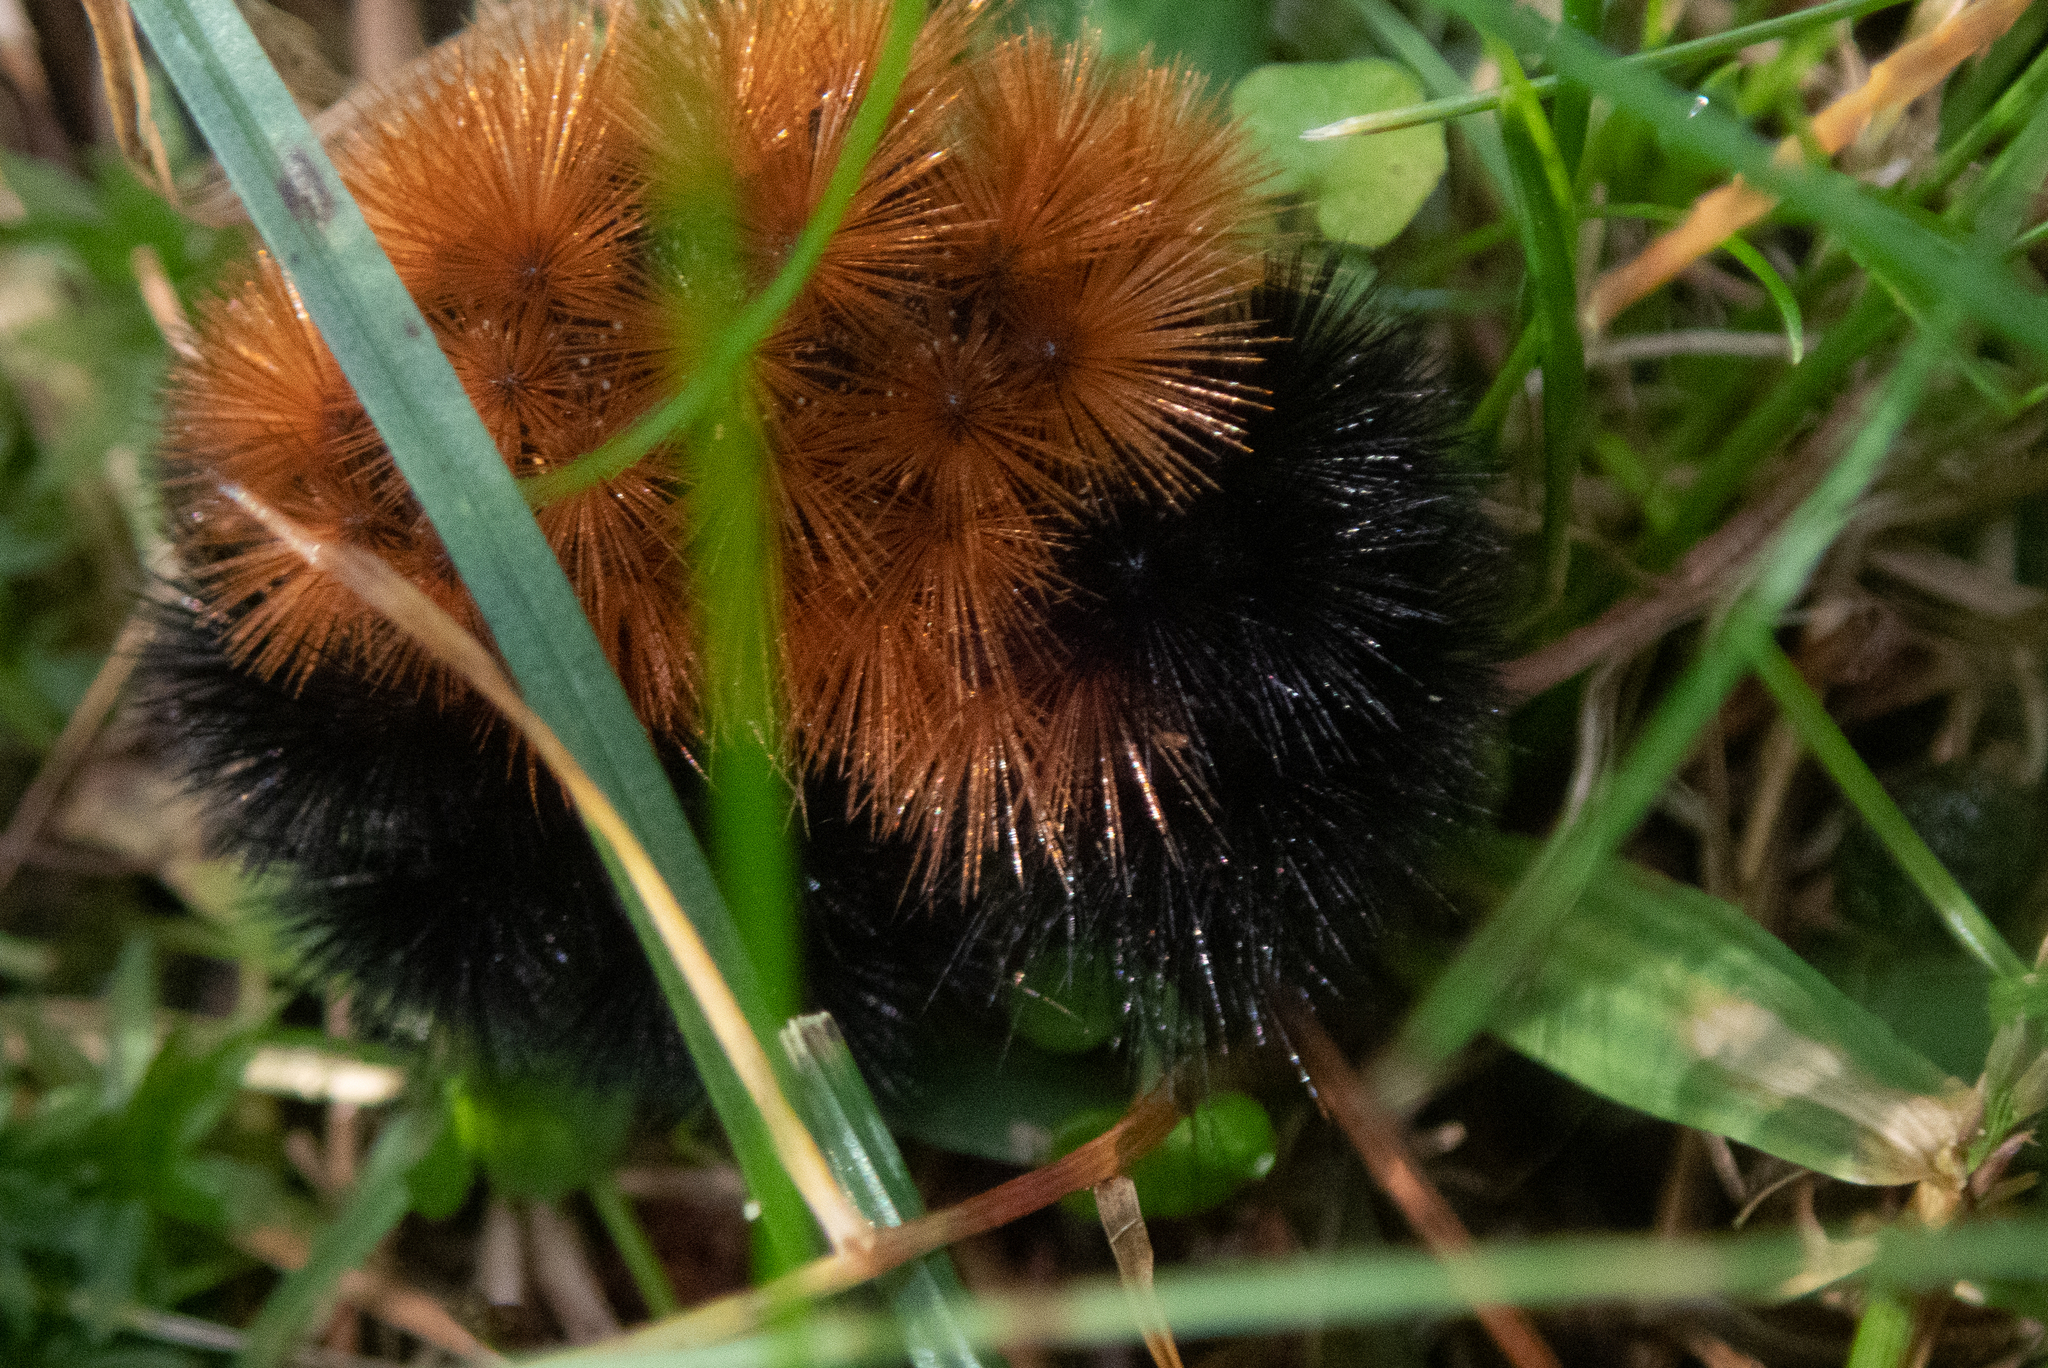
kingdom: Animalia
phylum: Arthropoda
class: Insecta
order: Lepidoptera
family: Erebidae
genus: Pyrrharctia
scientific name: Pyrrharctia isabella
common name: Isabella tiger moth
